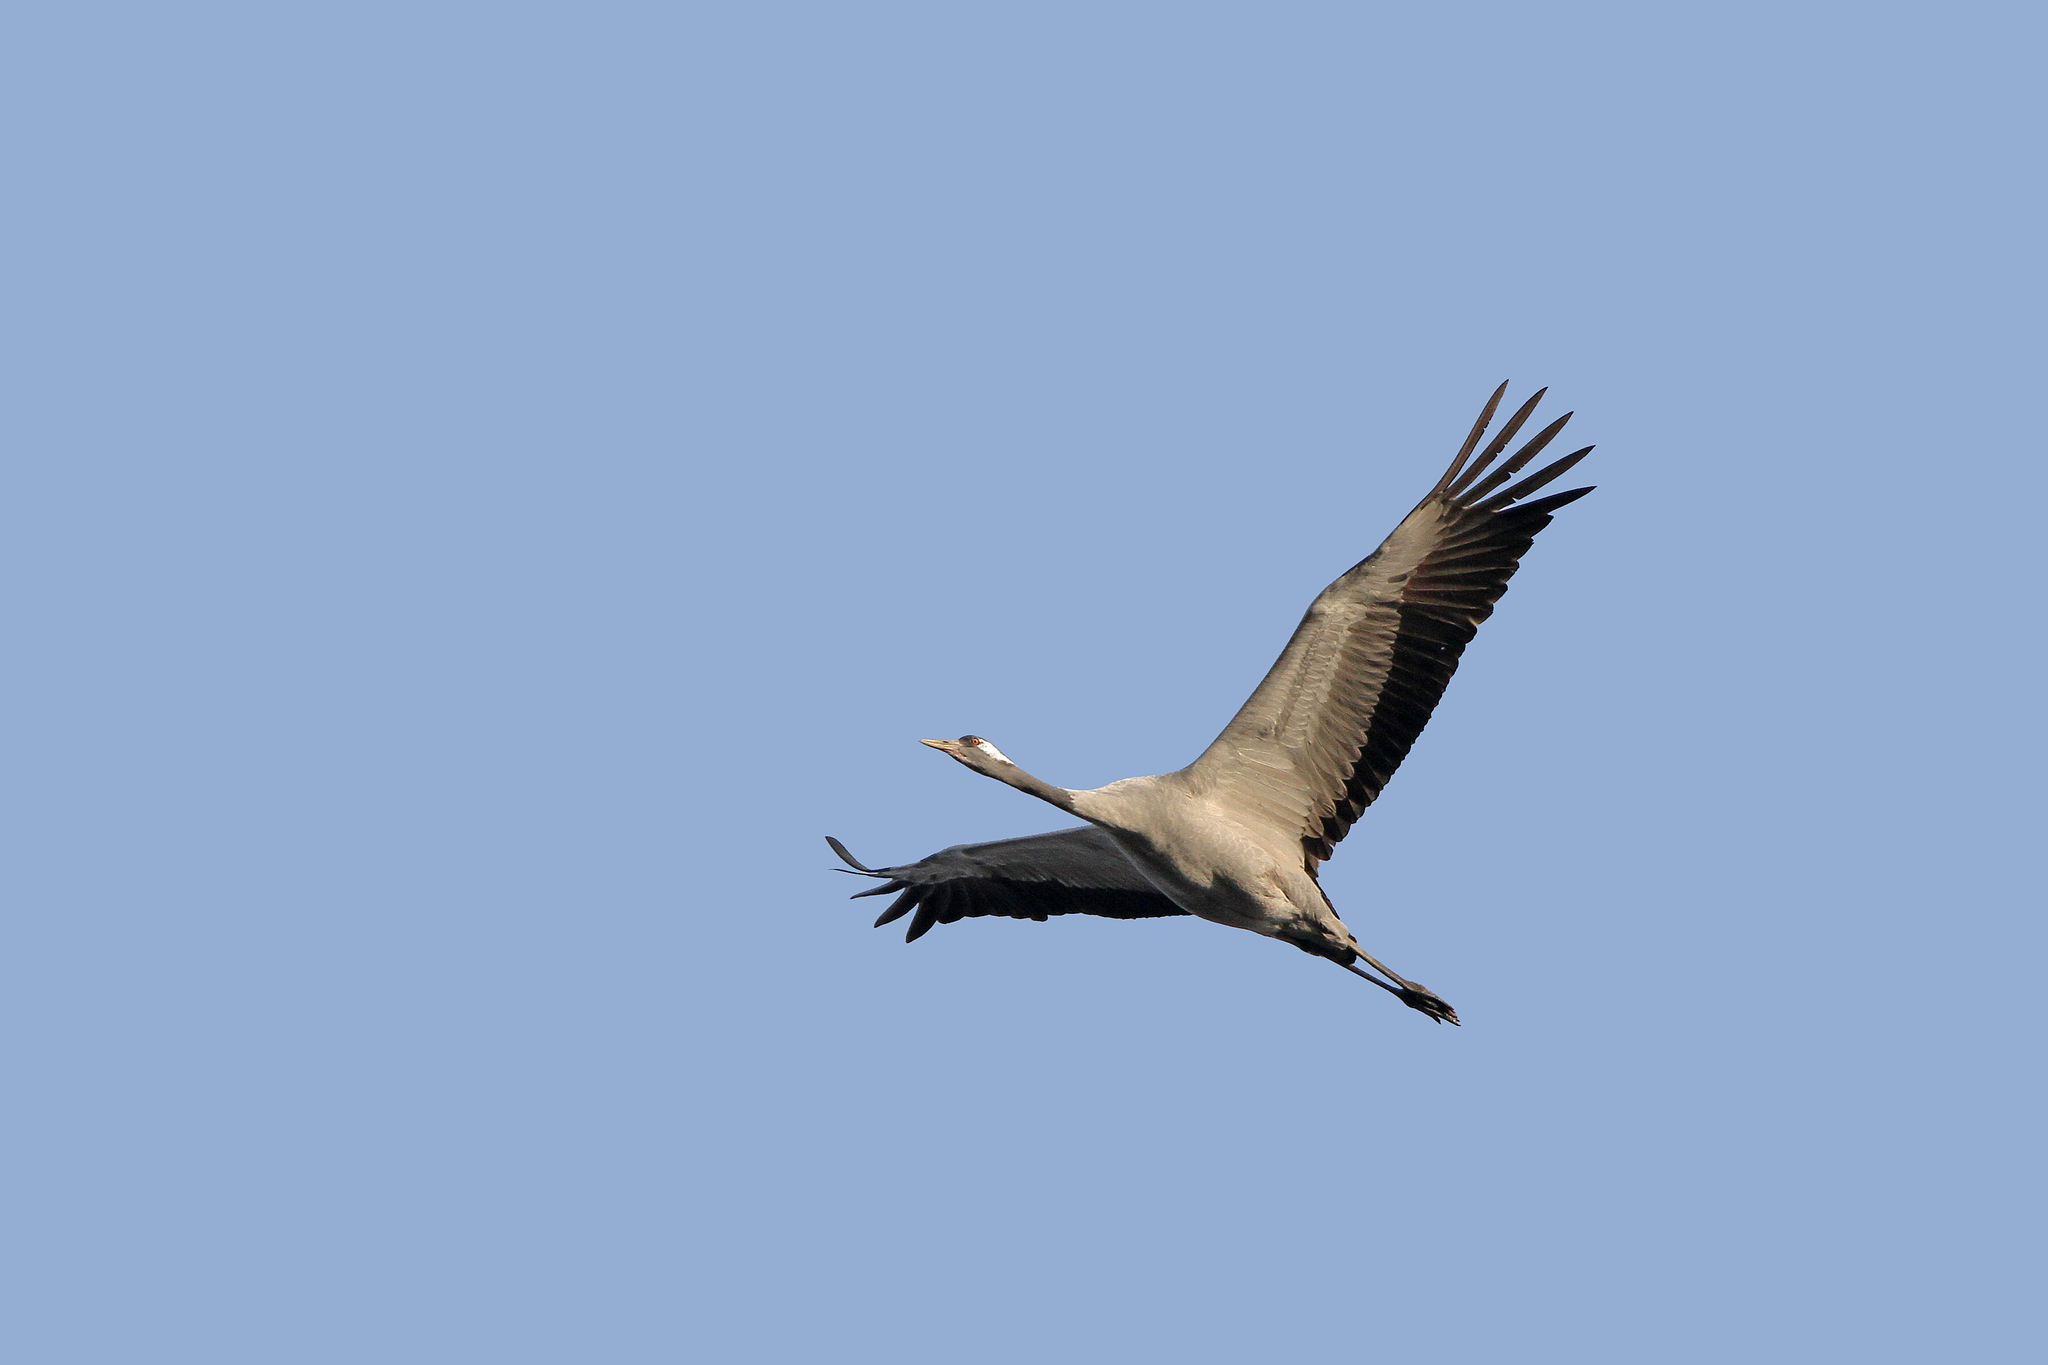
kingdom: Animalia
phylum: Chordata
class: Aves
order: Gruiformes
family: Gruidae
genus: Grus
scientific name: Grus grus
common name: Common crane
